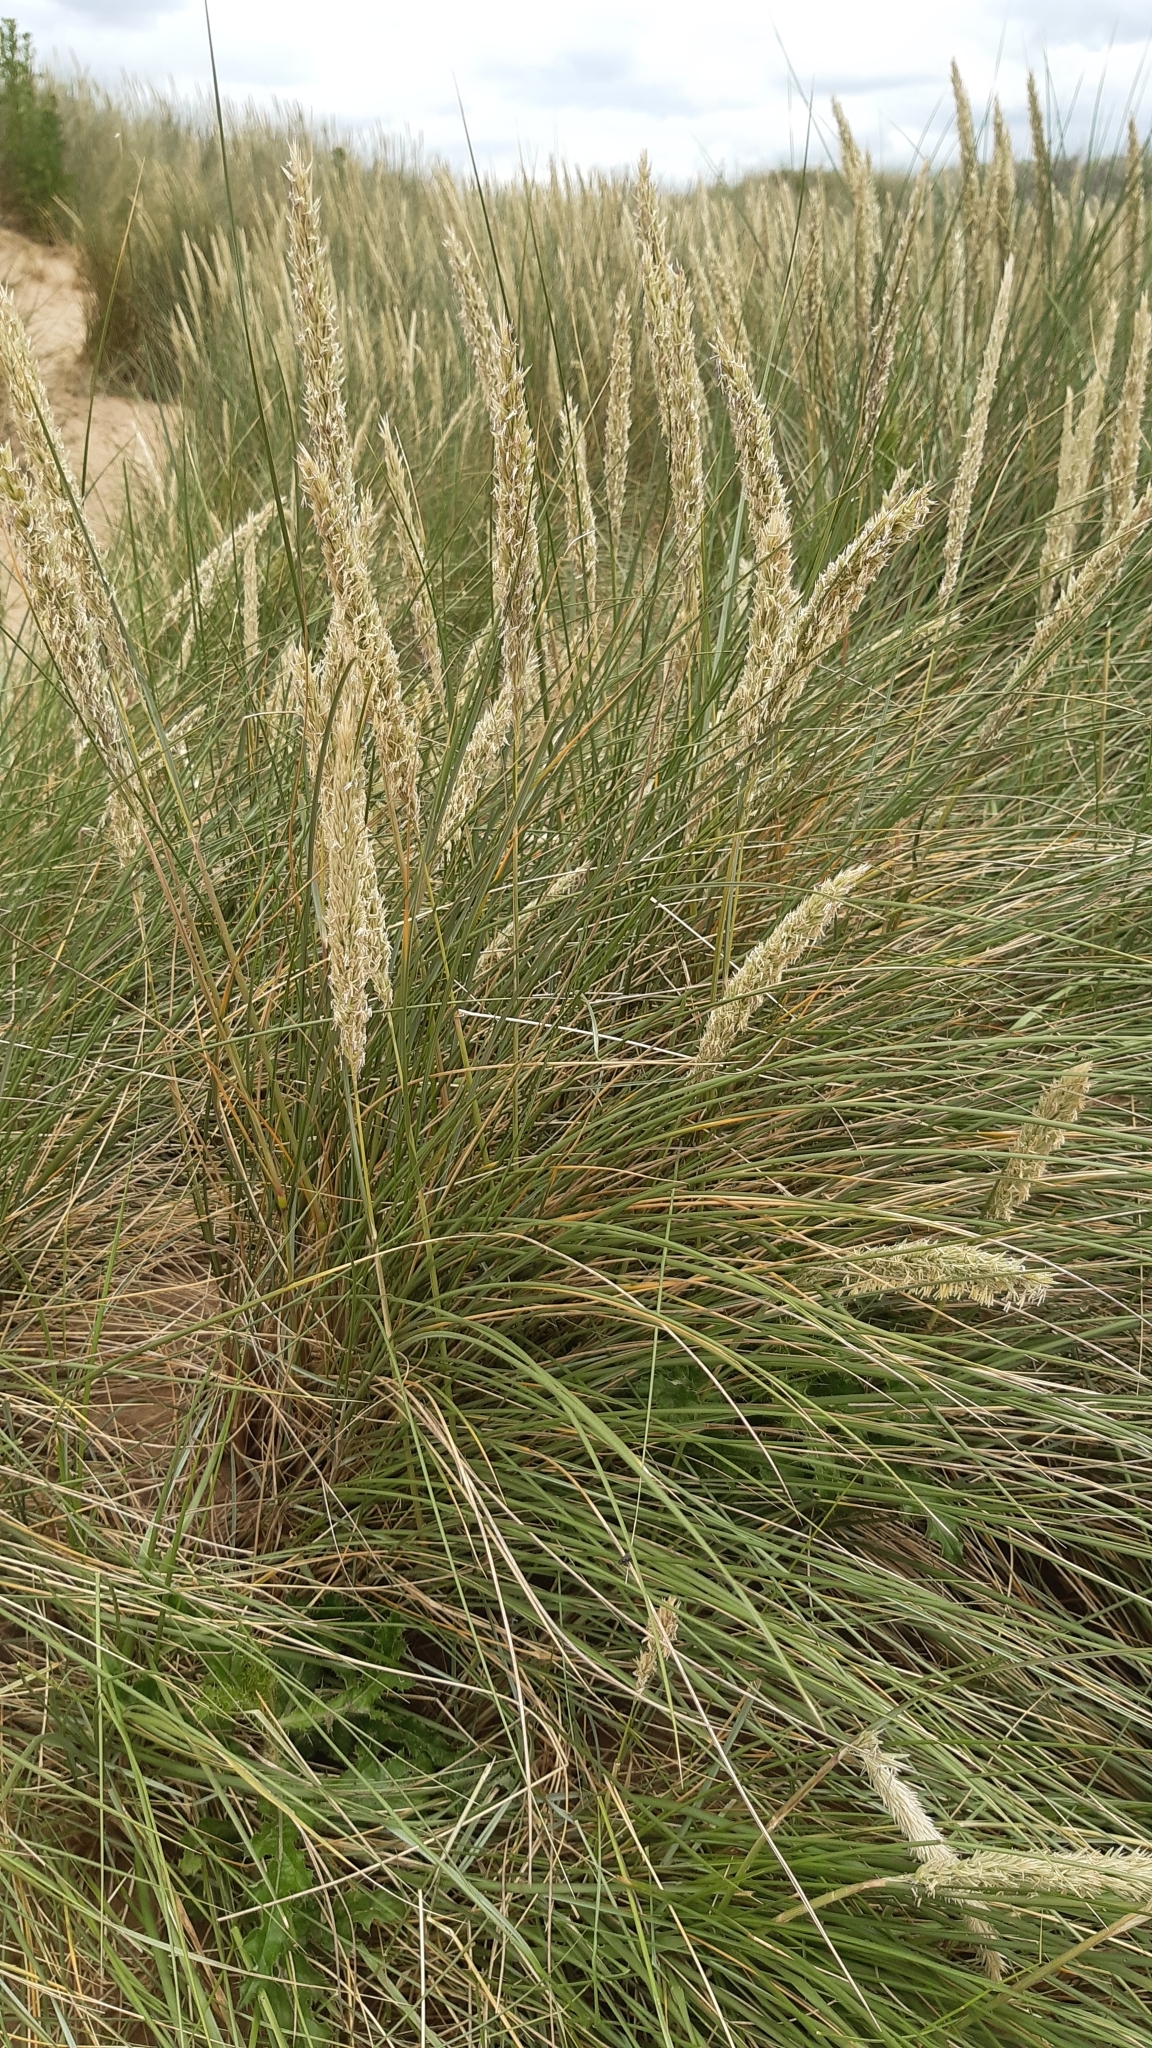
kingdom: Plantae
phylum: Tracheophyta
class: Liliopsida
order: Poales
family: Poaceae
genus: Calamagrostis
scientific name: Calamagrostis arenaria
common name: European beachgrass
